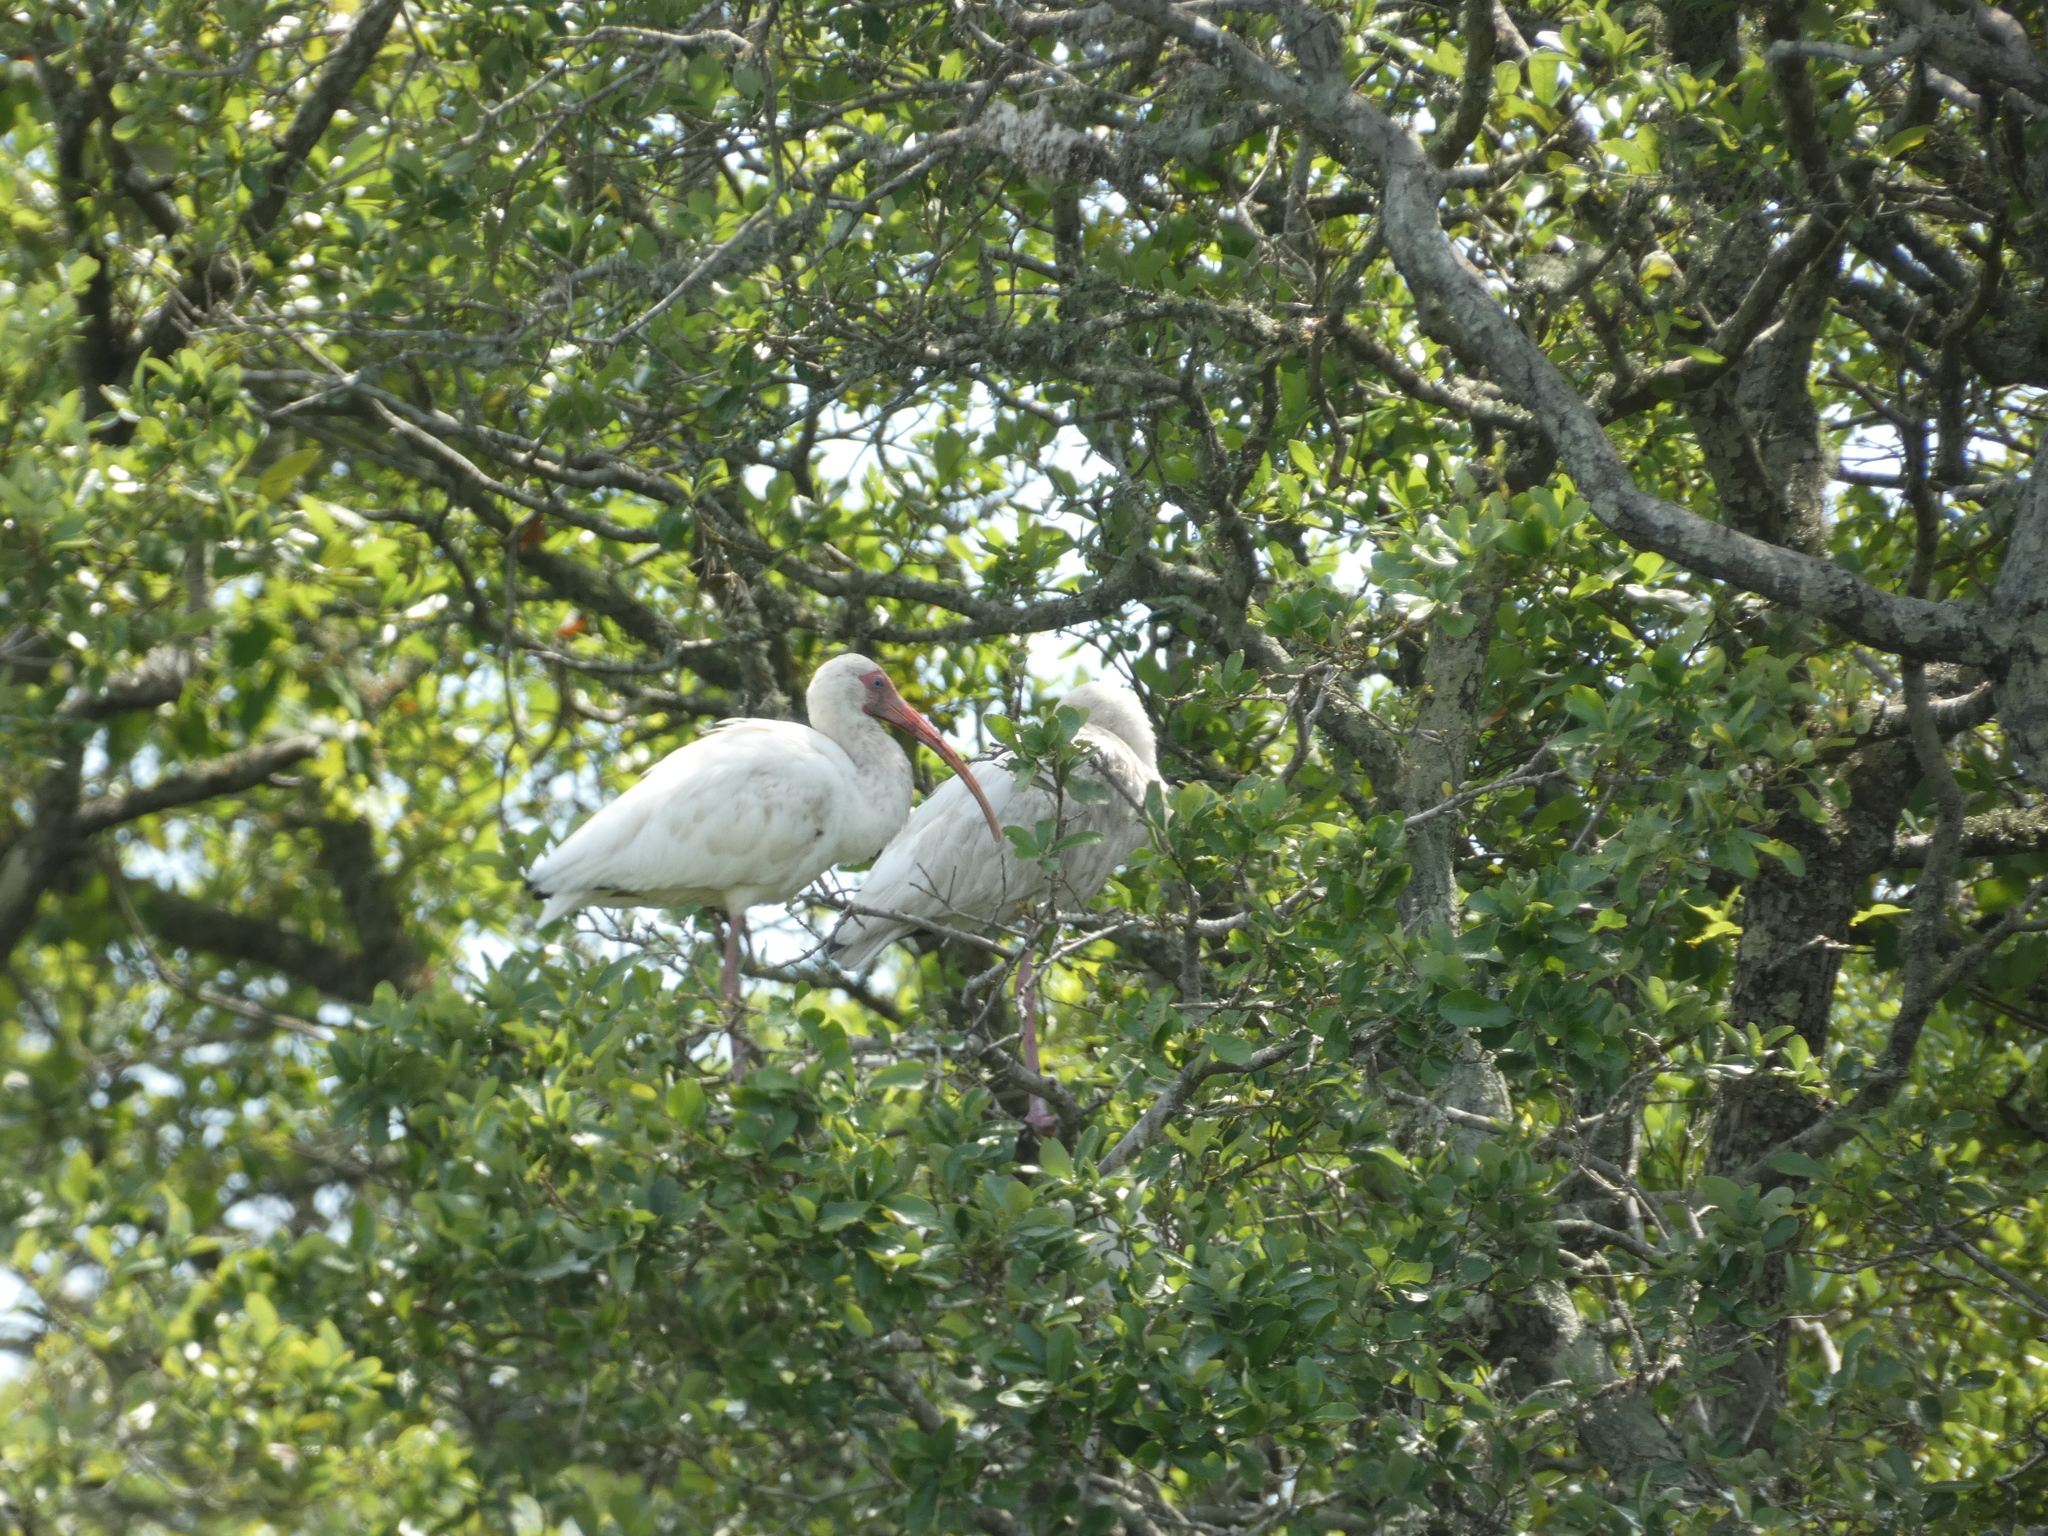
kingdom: Animalia
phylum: Chordata
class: Aves
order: Pelecaniformes
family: Threskiornithidae
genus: Eudocimus
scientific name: Eudocimus albus
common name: White ibis
